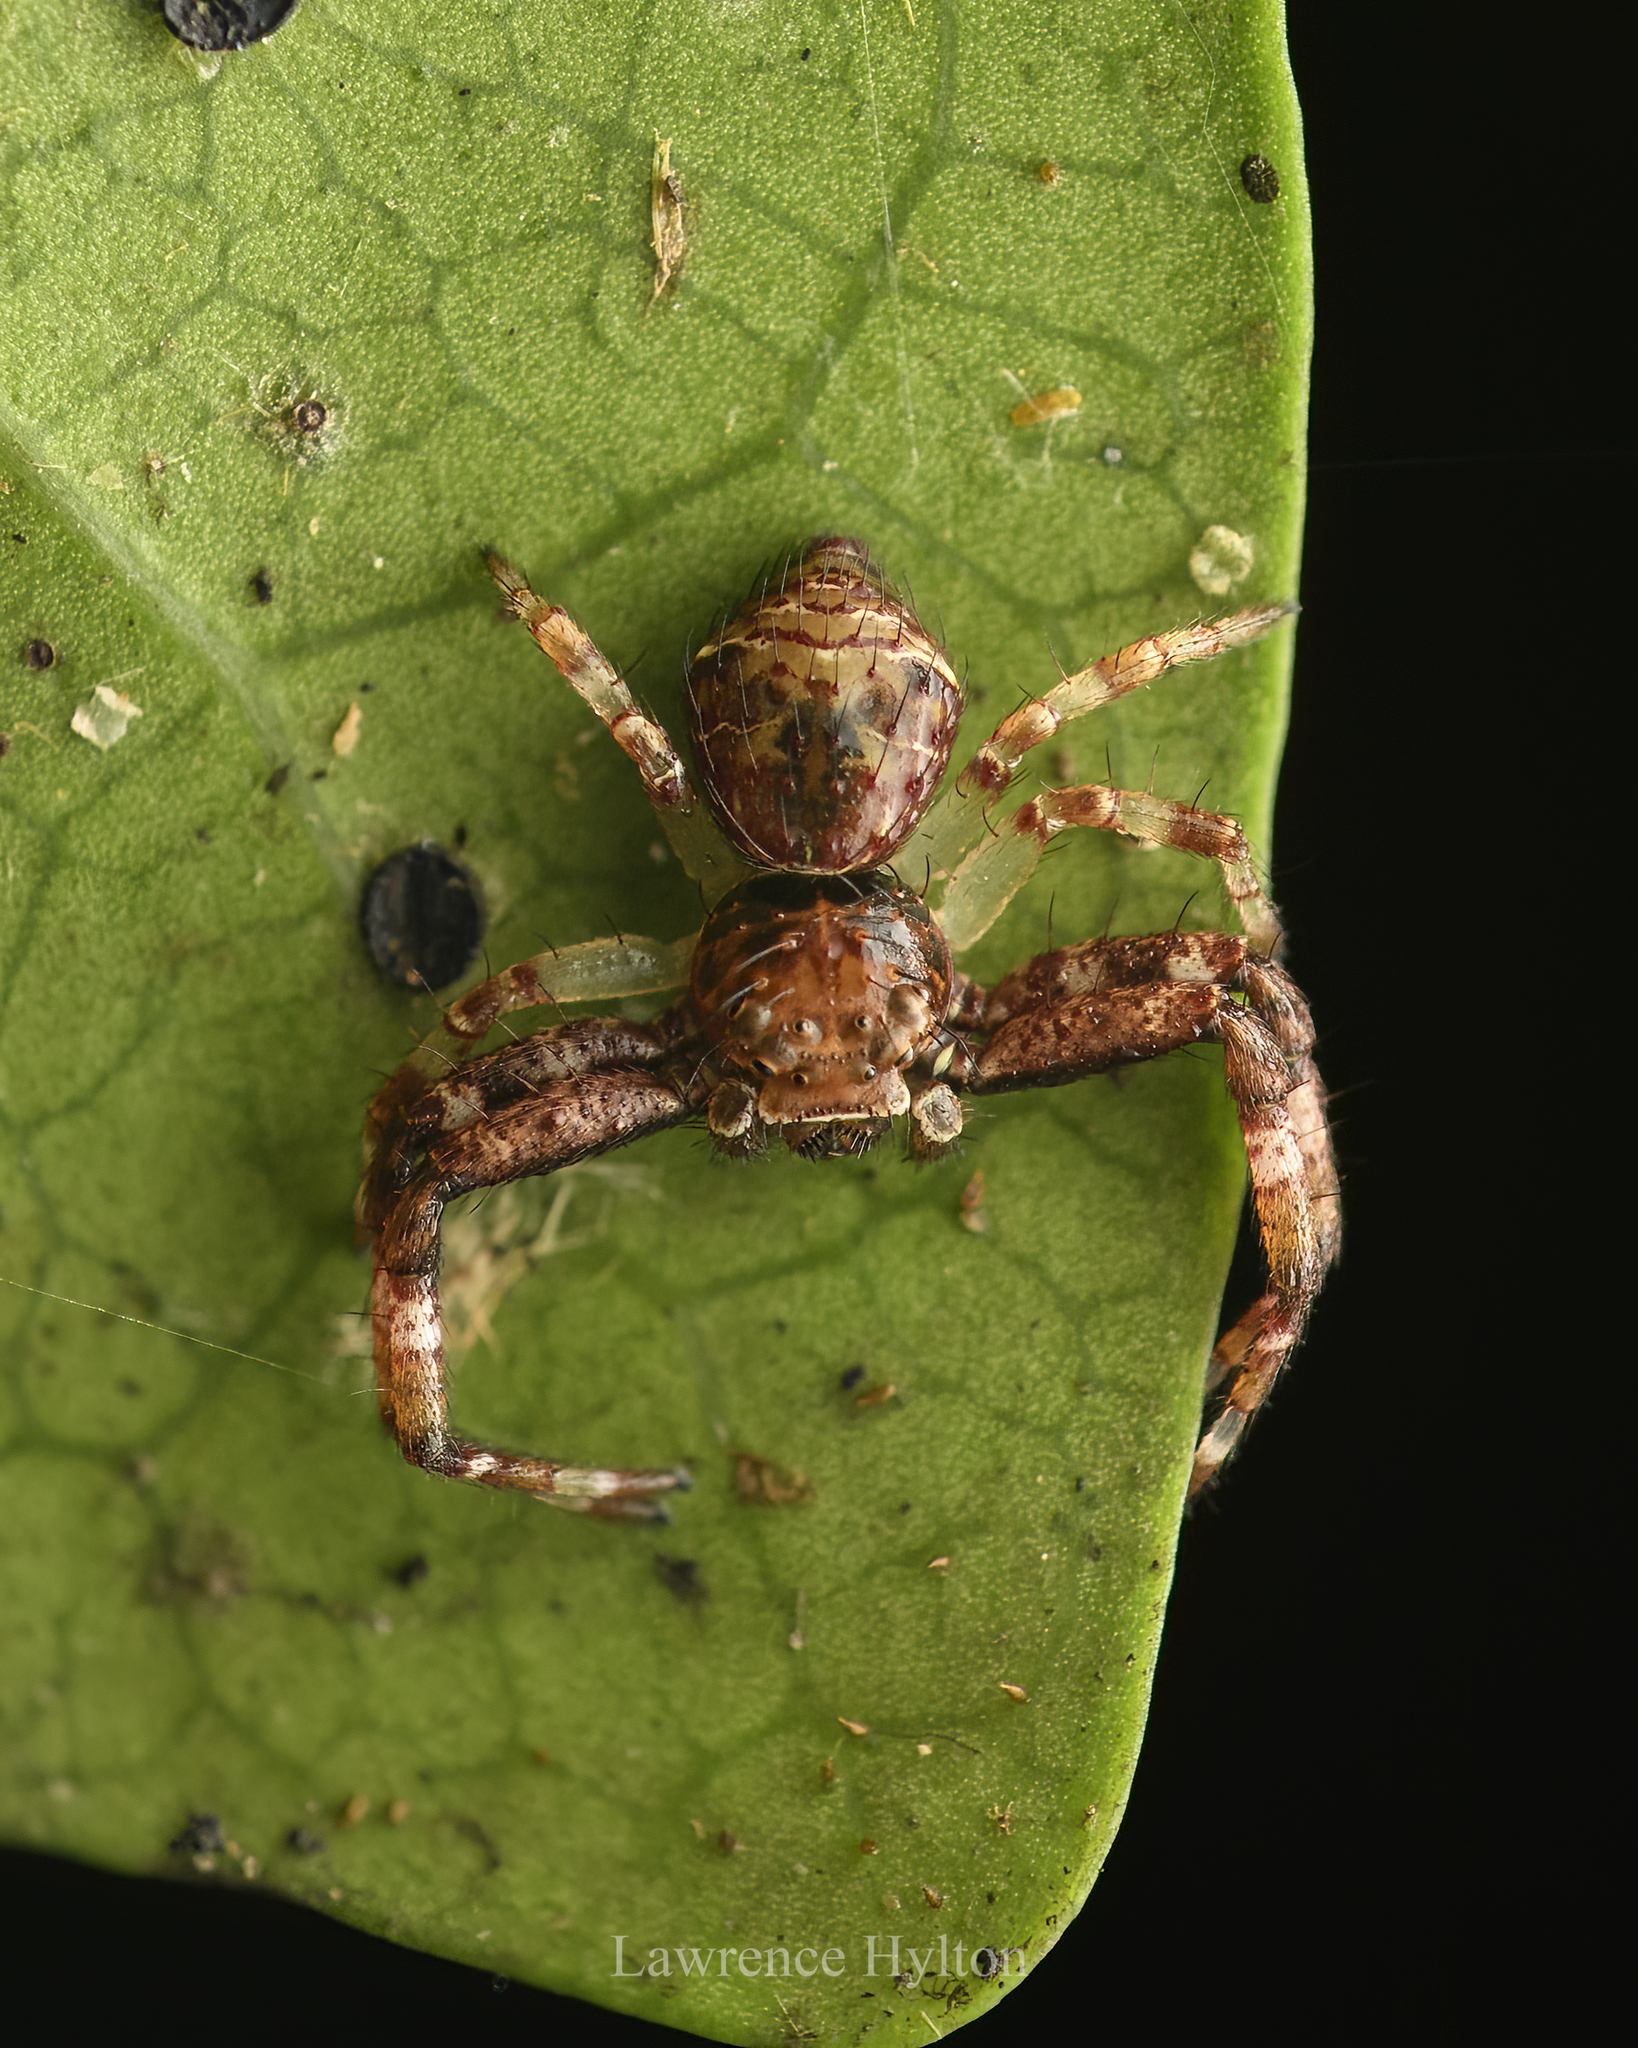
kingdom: Animalia
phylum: Arthropoda
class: Arachnida
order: Araneae
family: Thomisidae
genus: Strigoplus
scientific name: Strigoplus guizhouensis
